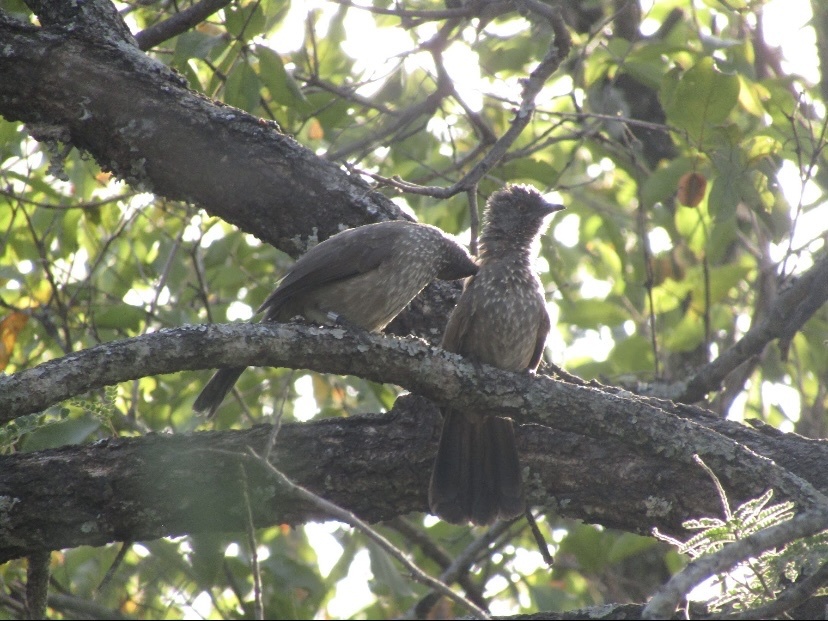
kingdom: Animalia
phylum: Chordata
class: Aves
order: Passeriformes
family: Leiothrichidae
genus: Turdoides
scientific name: Turdoides jardineii
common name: Arrow-marked babbler
